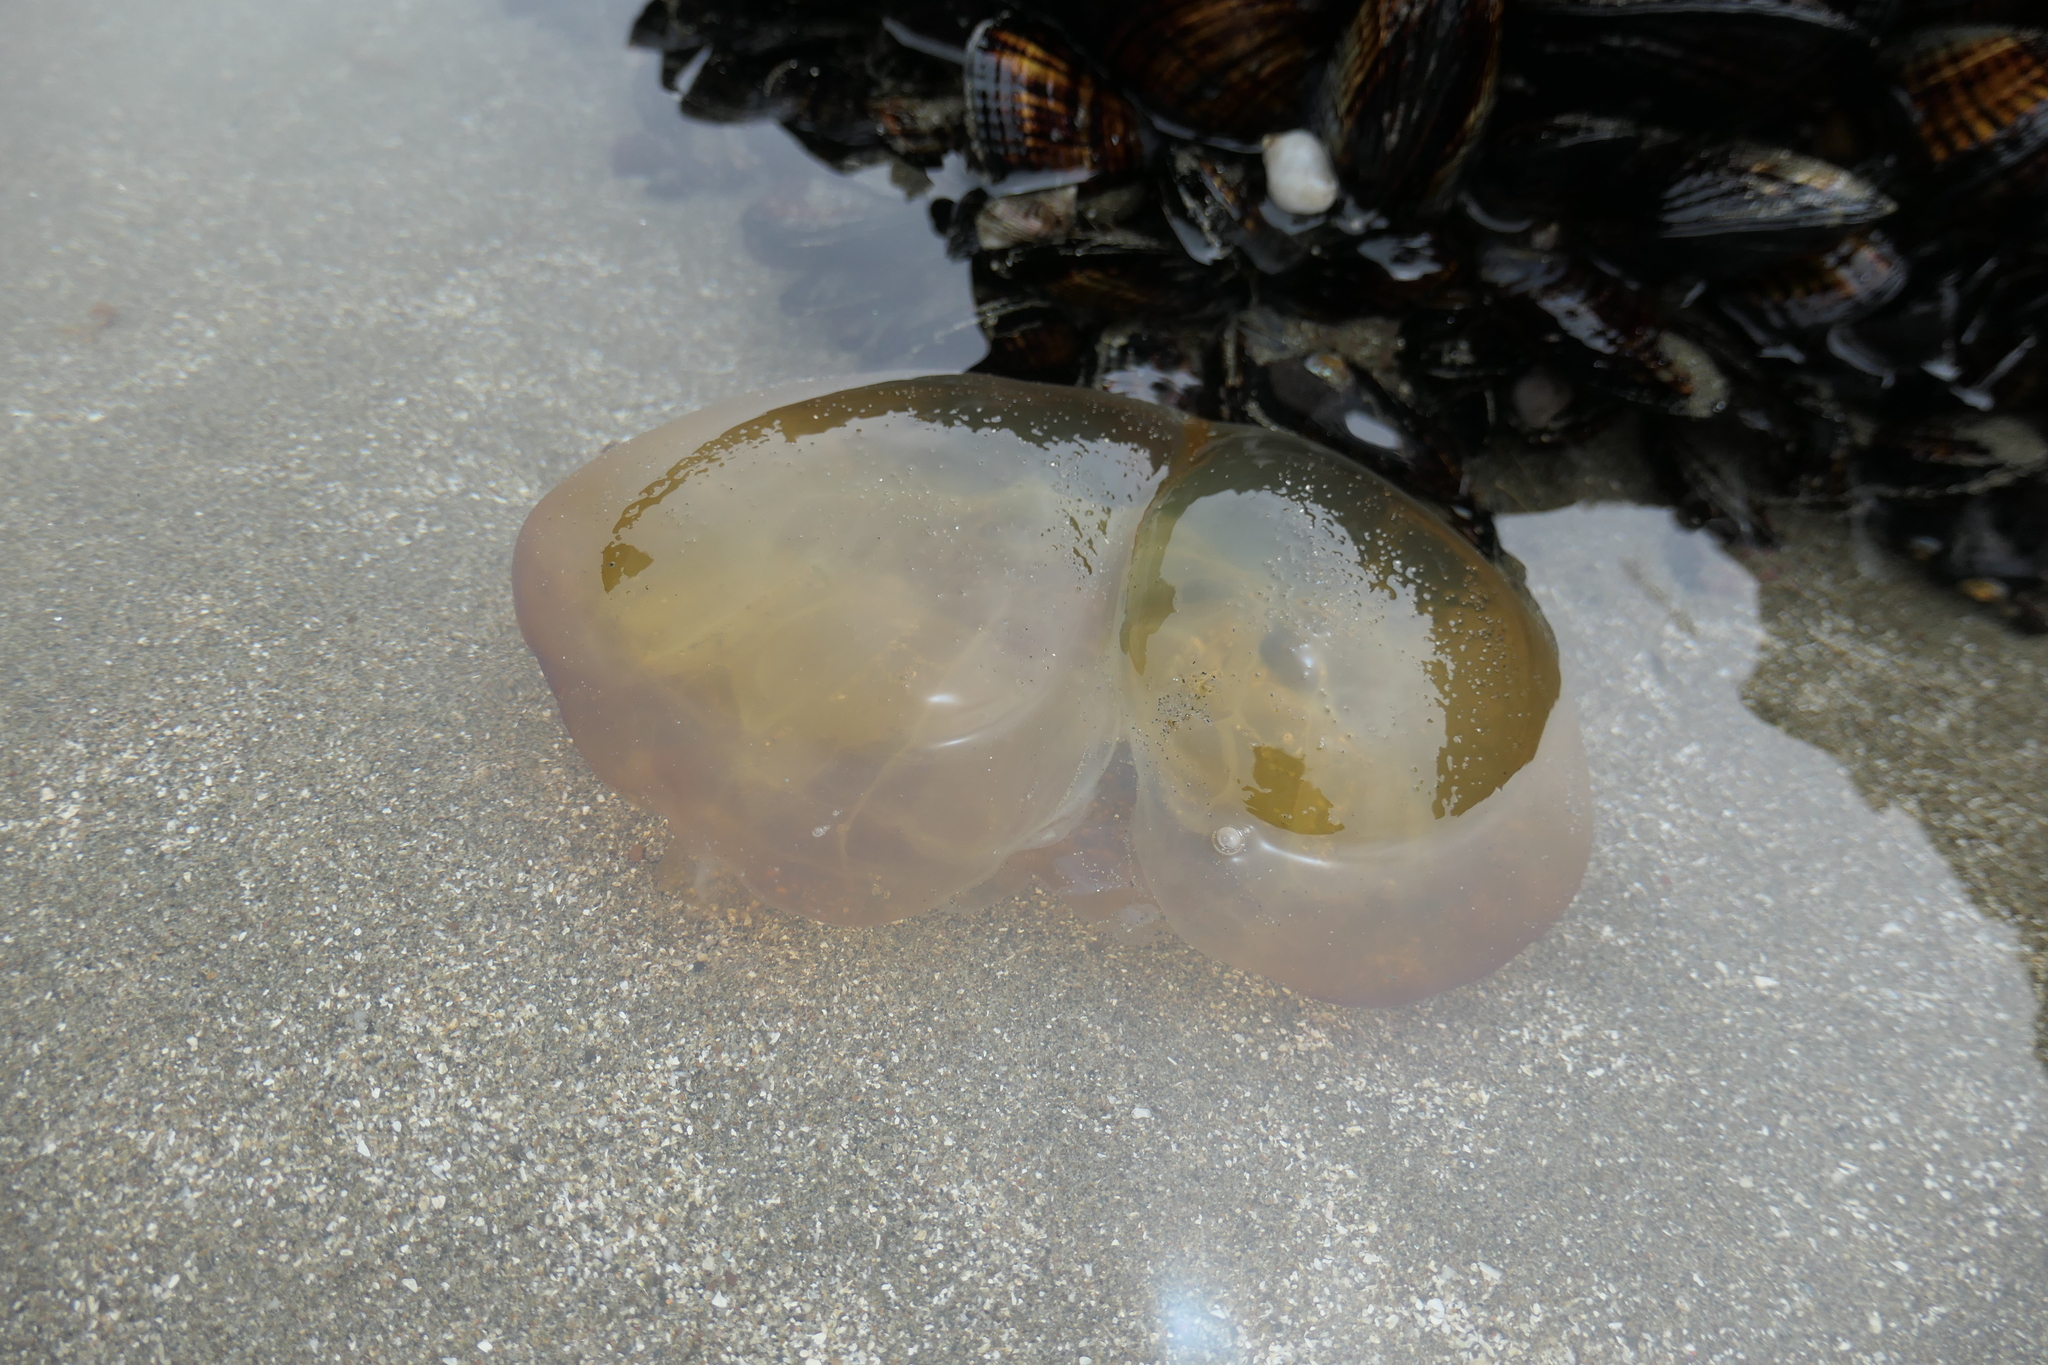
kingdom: Animalia
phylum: Cnidaria
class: Scyphozoa
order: Semaeostomeae
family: Pelagiidae
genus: Chrysaora
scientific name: Chrysaora fuscescens
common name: Sea nettle
